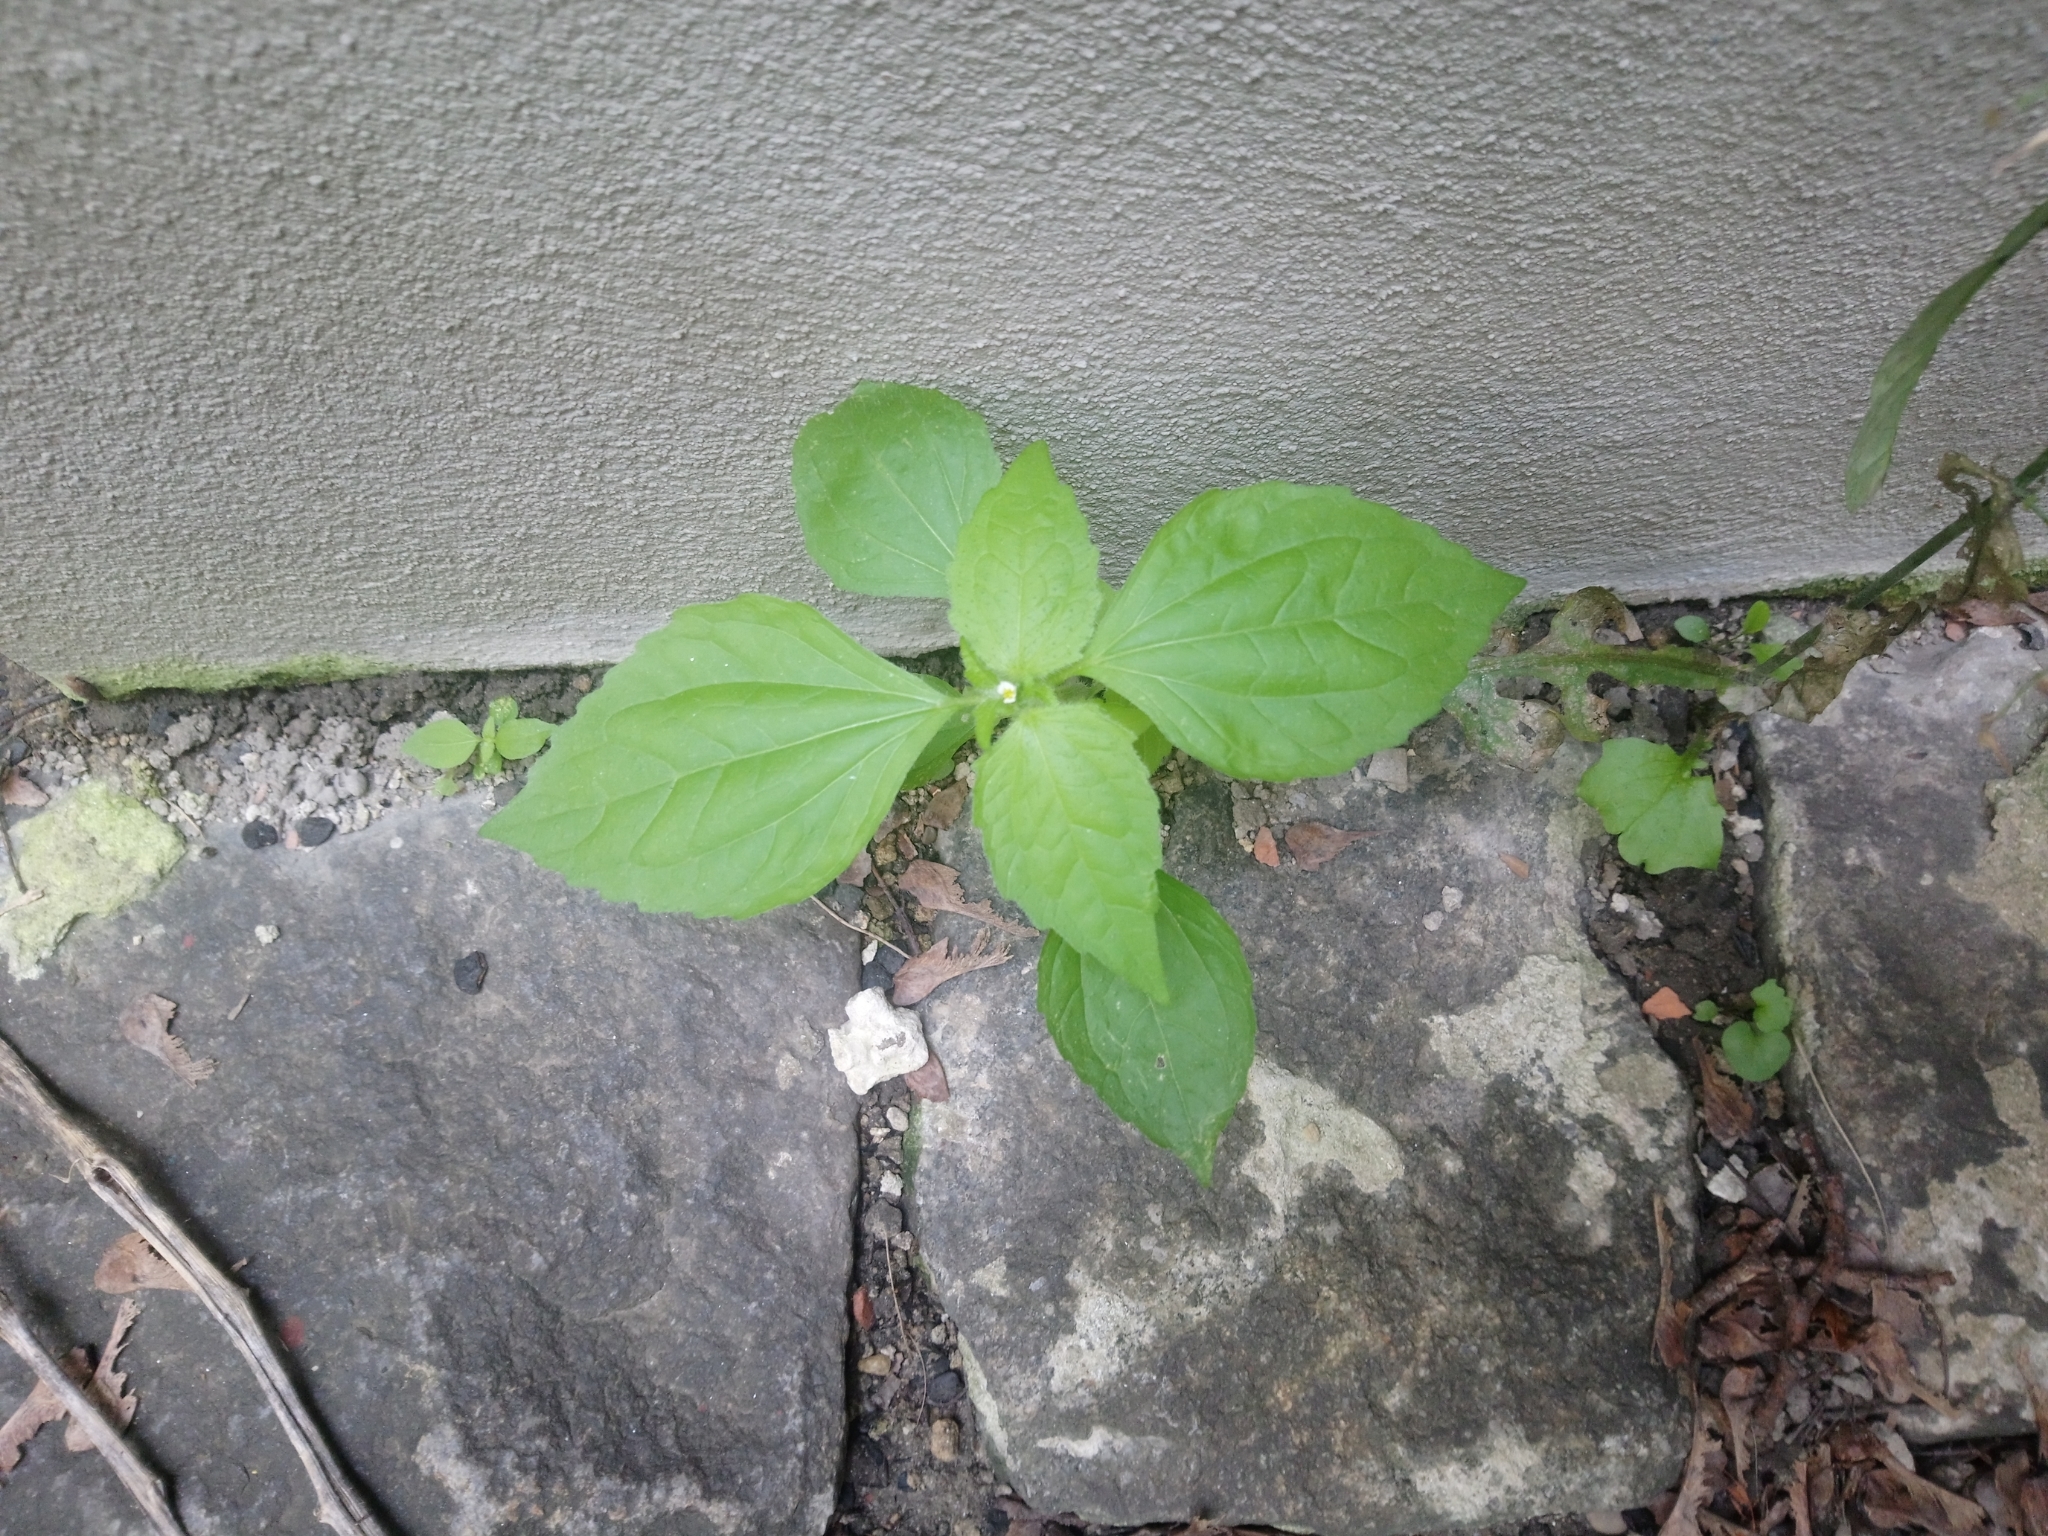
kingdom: Plantae
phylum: Tracheophyta
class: Magnoliopsida
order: Asterales
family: Asteraceae
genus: Galinsoga
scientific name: Galinsoga quadriradiata
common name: Shaggy soldier
